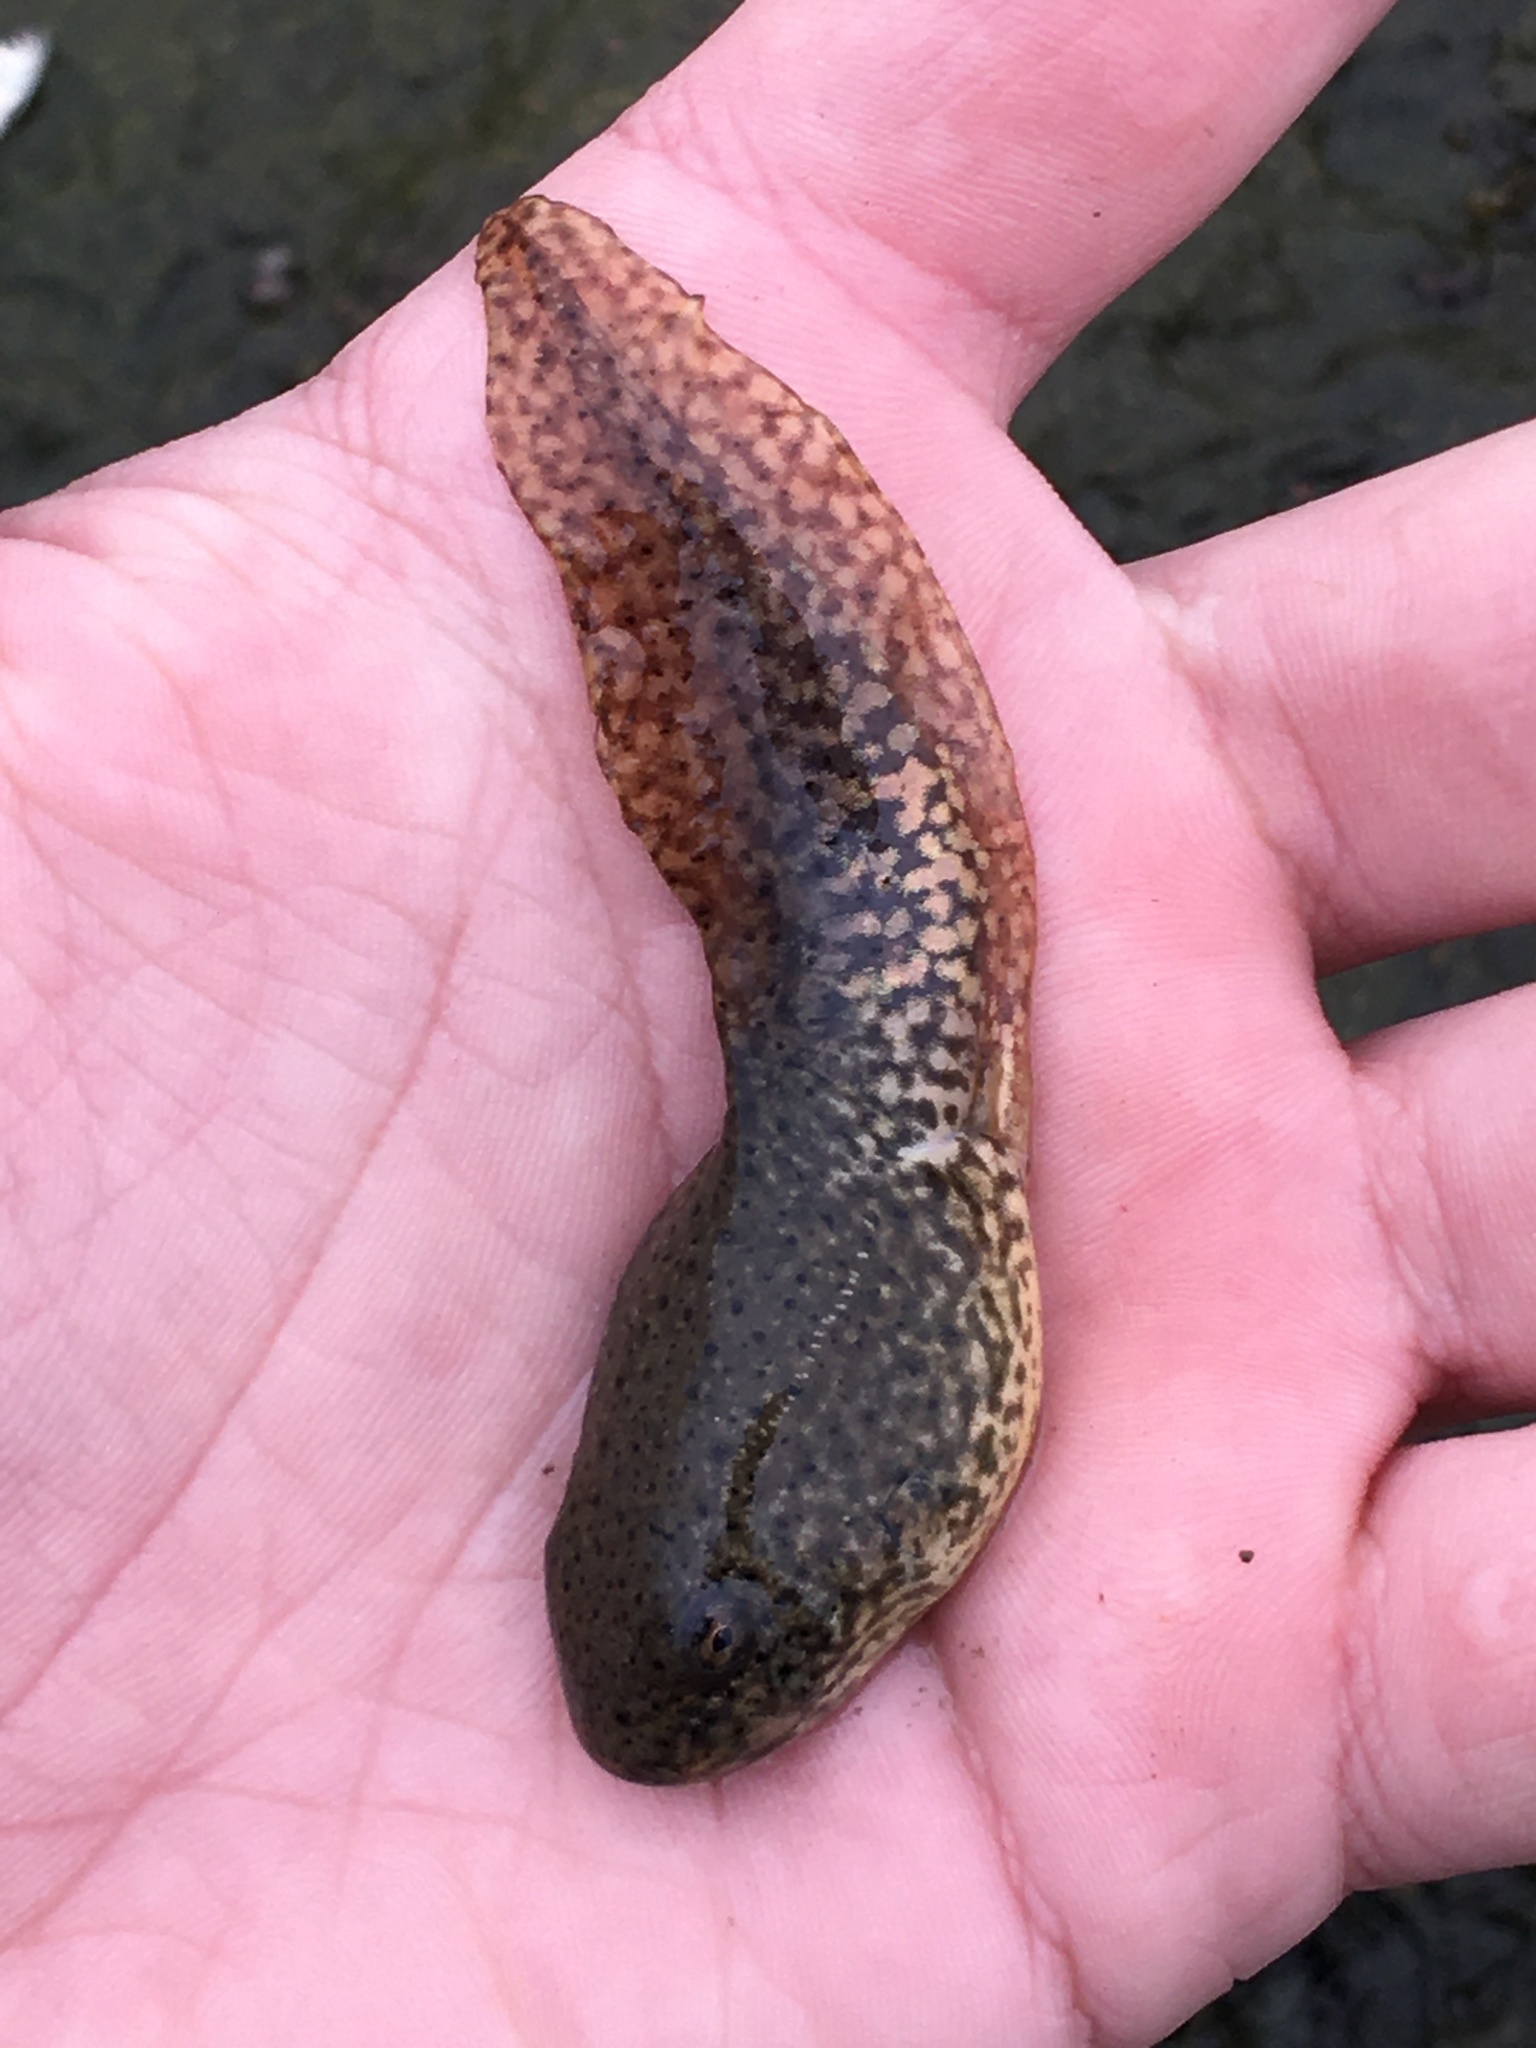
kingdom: Animalia
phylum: Chordata
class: Amphibia
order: Anura
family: Ranidae
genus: Lithobates
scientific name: Lithobates catesbeianus
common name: American bullfrog
